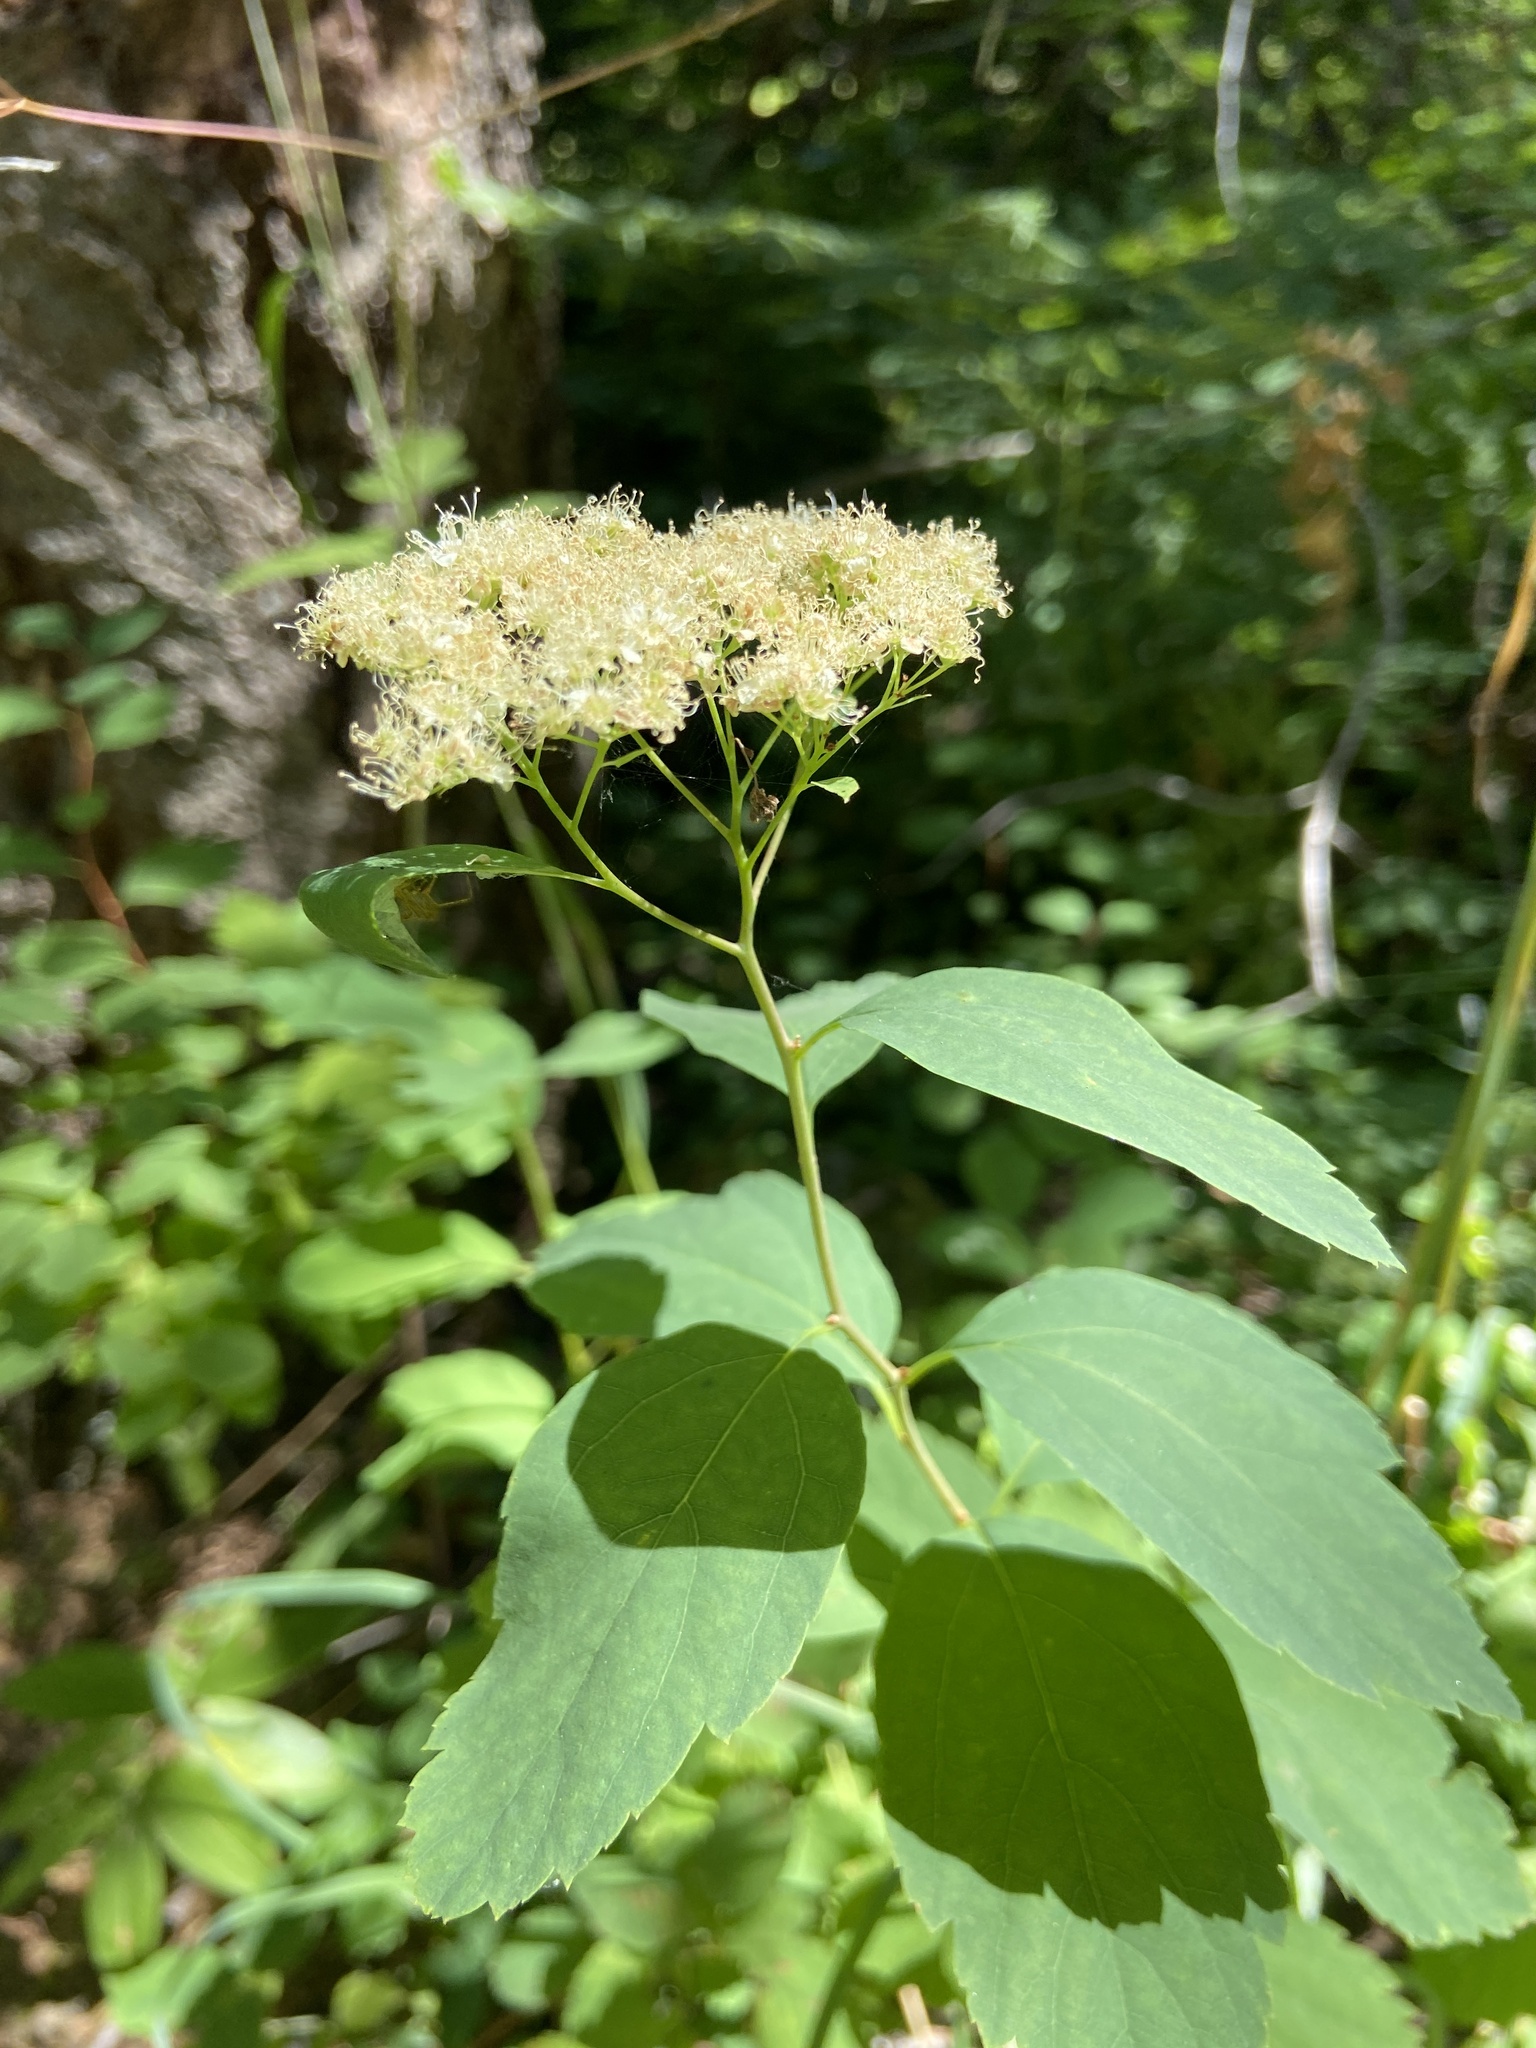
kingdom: Plantae
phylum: Tracheophyta
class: Magnoliopsida
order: Rosales
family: Rosaceae
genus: Spiraea
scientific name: Spiraea lucida
